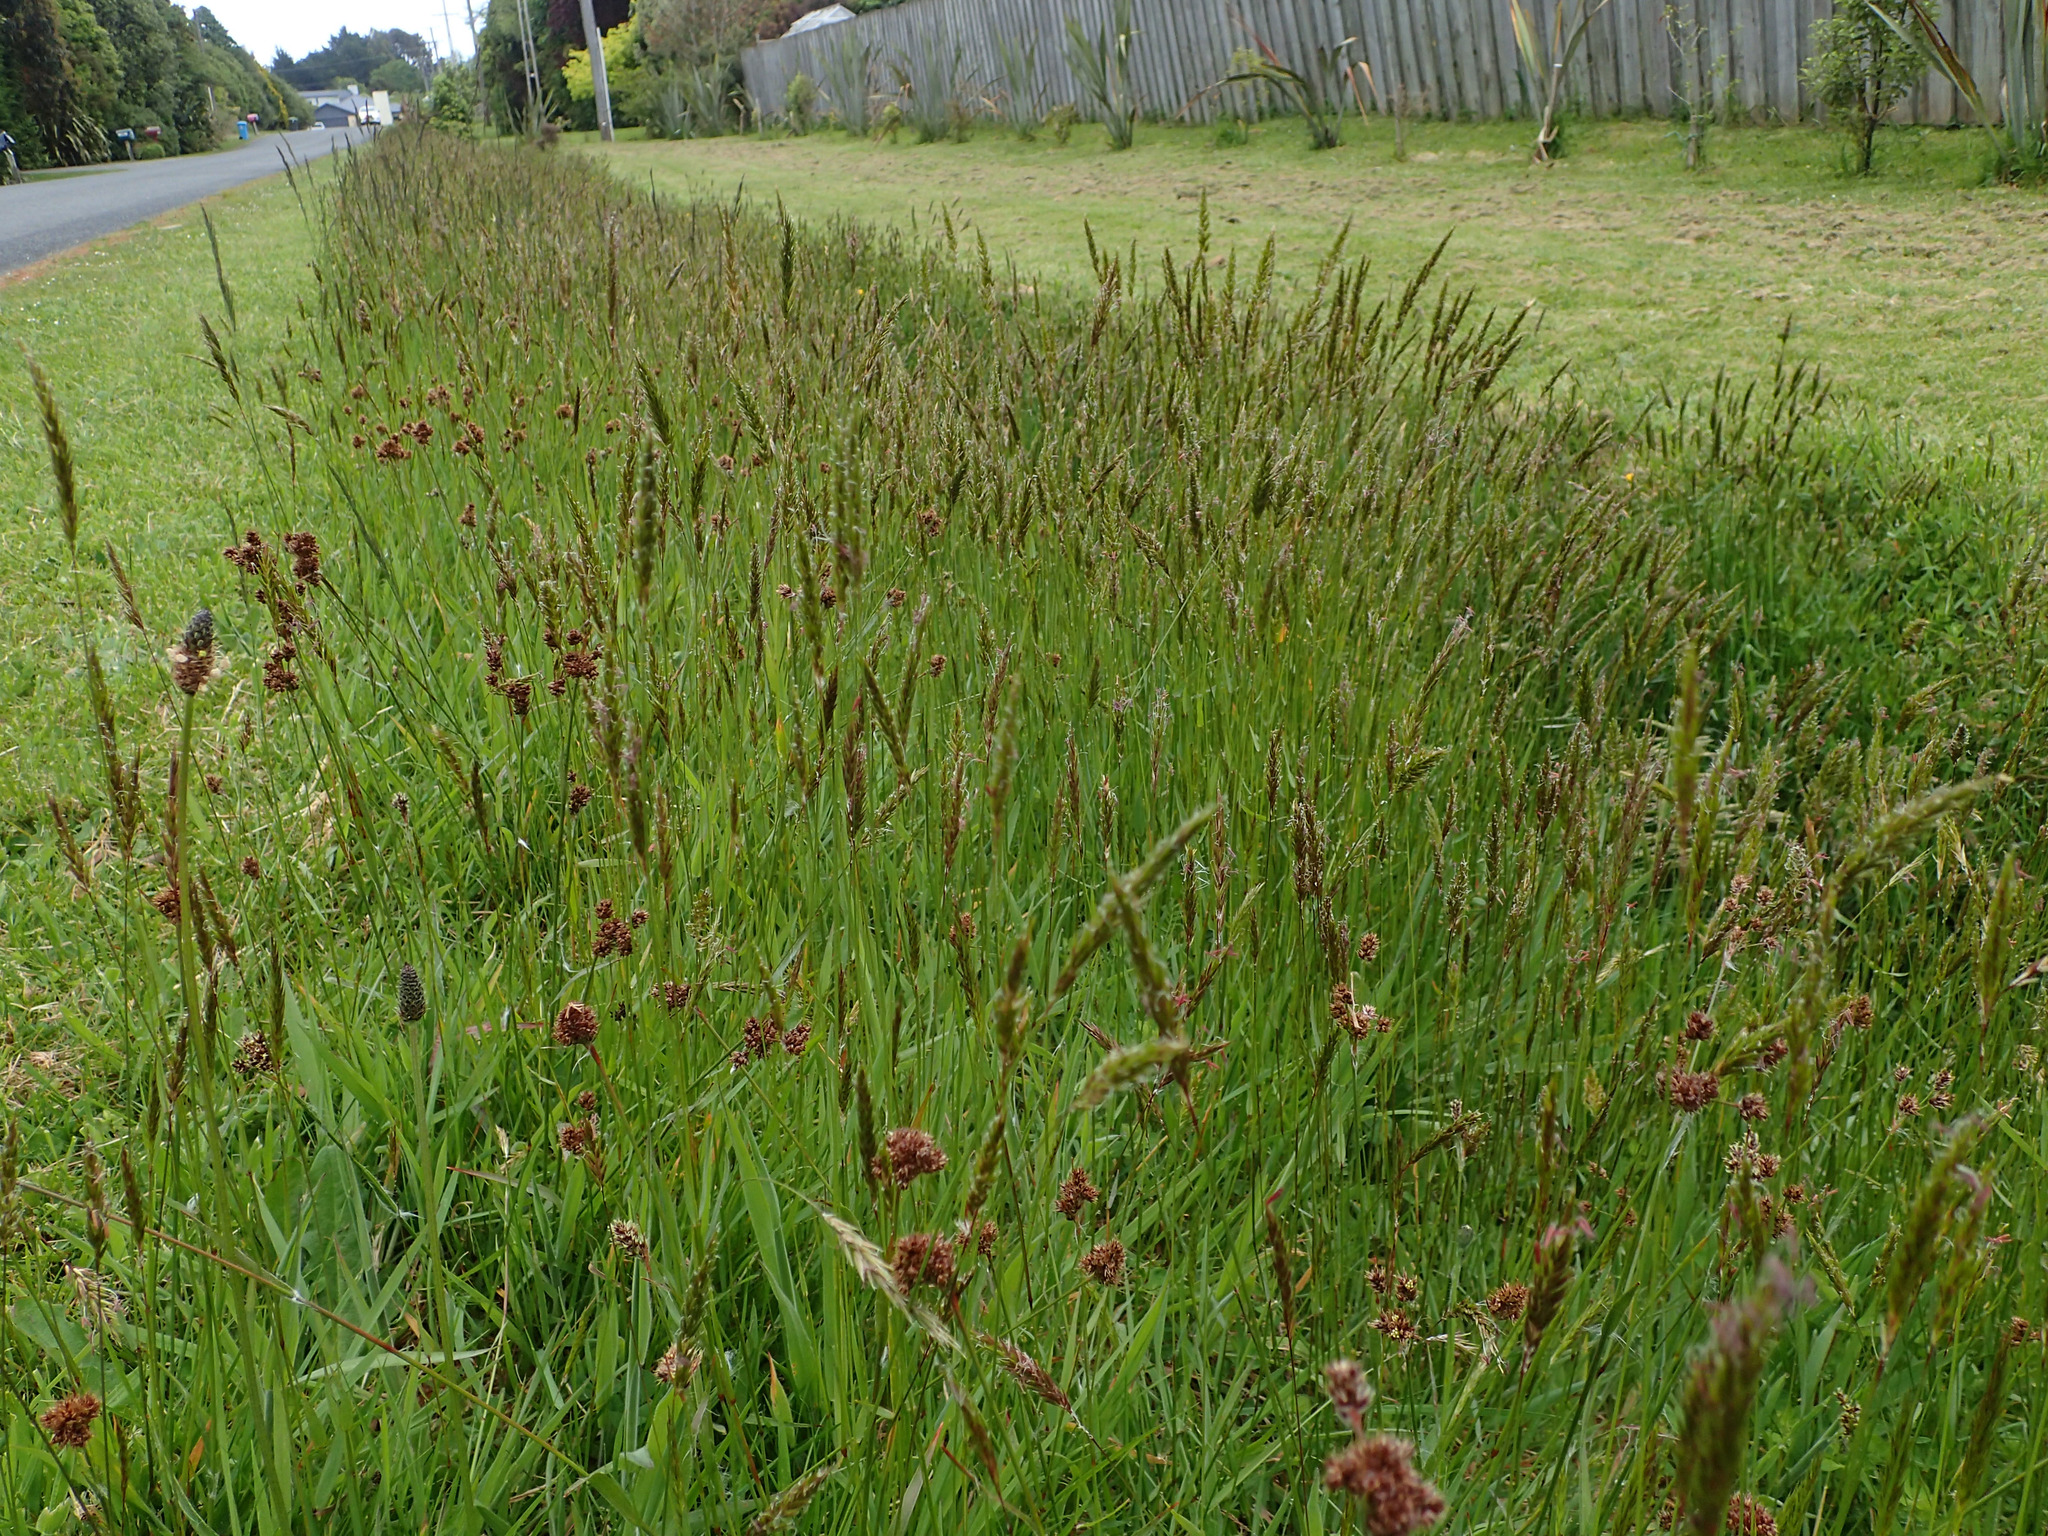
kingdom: Plantae
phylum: Tracheophyta
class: Liliopsida
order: Poales
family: Juncaceae
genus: Luzula
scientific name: Luzula congesta
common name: Heath woodrush
